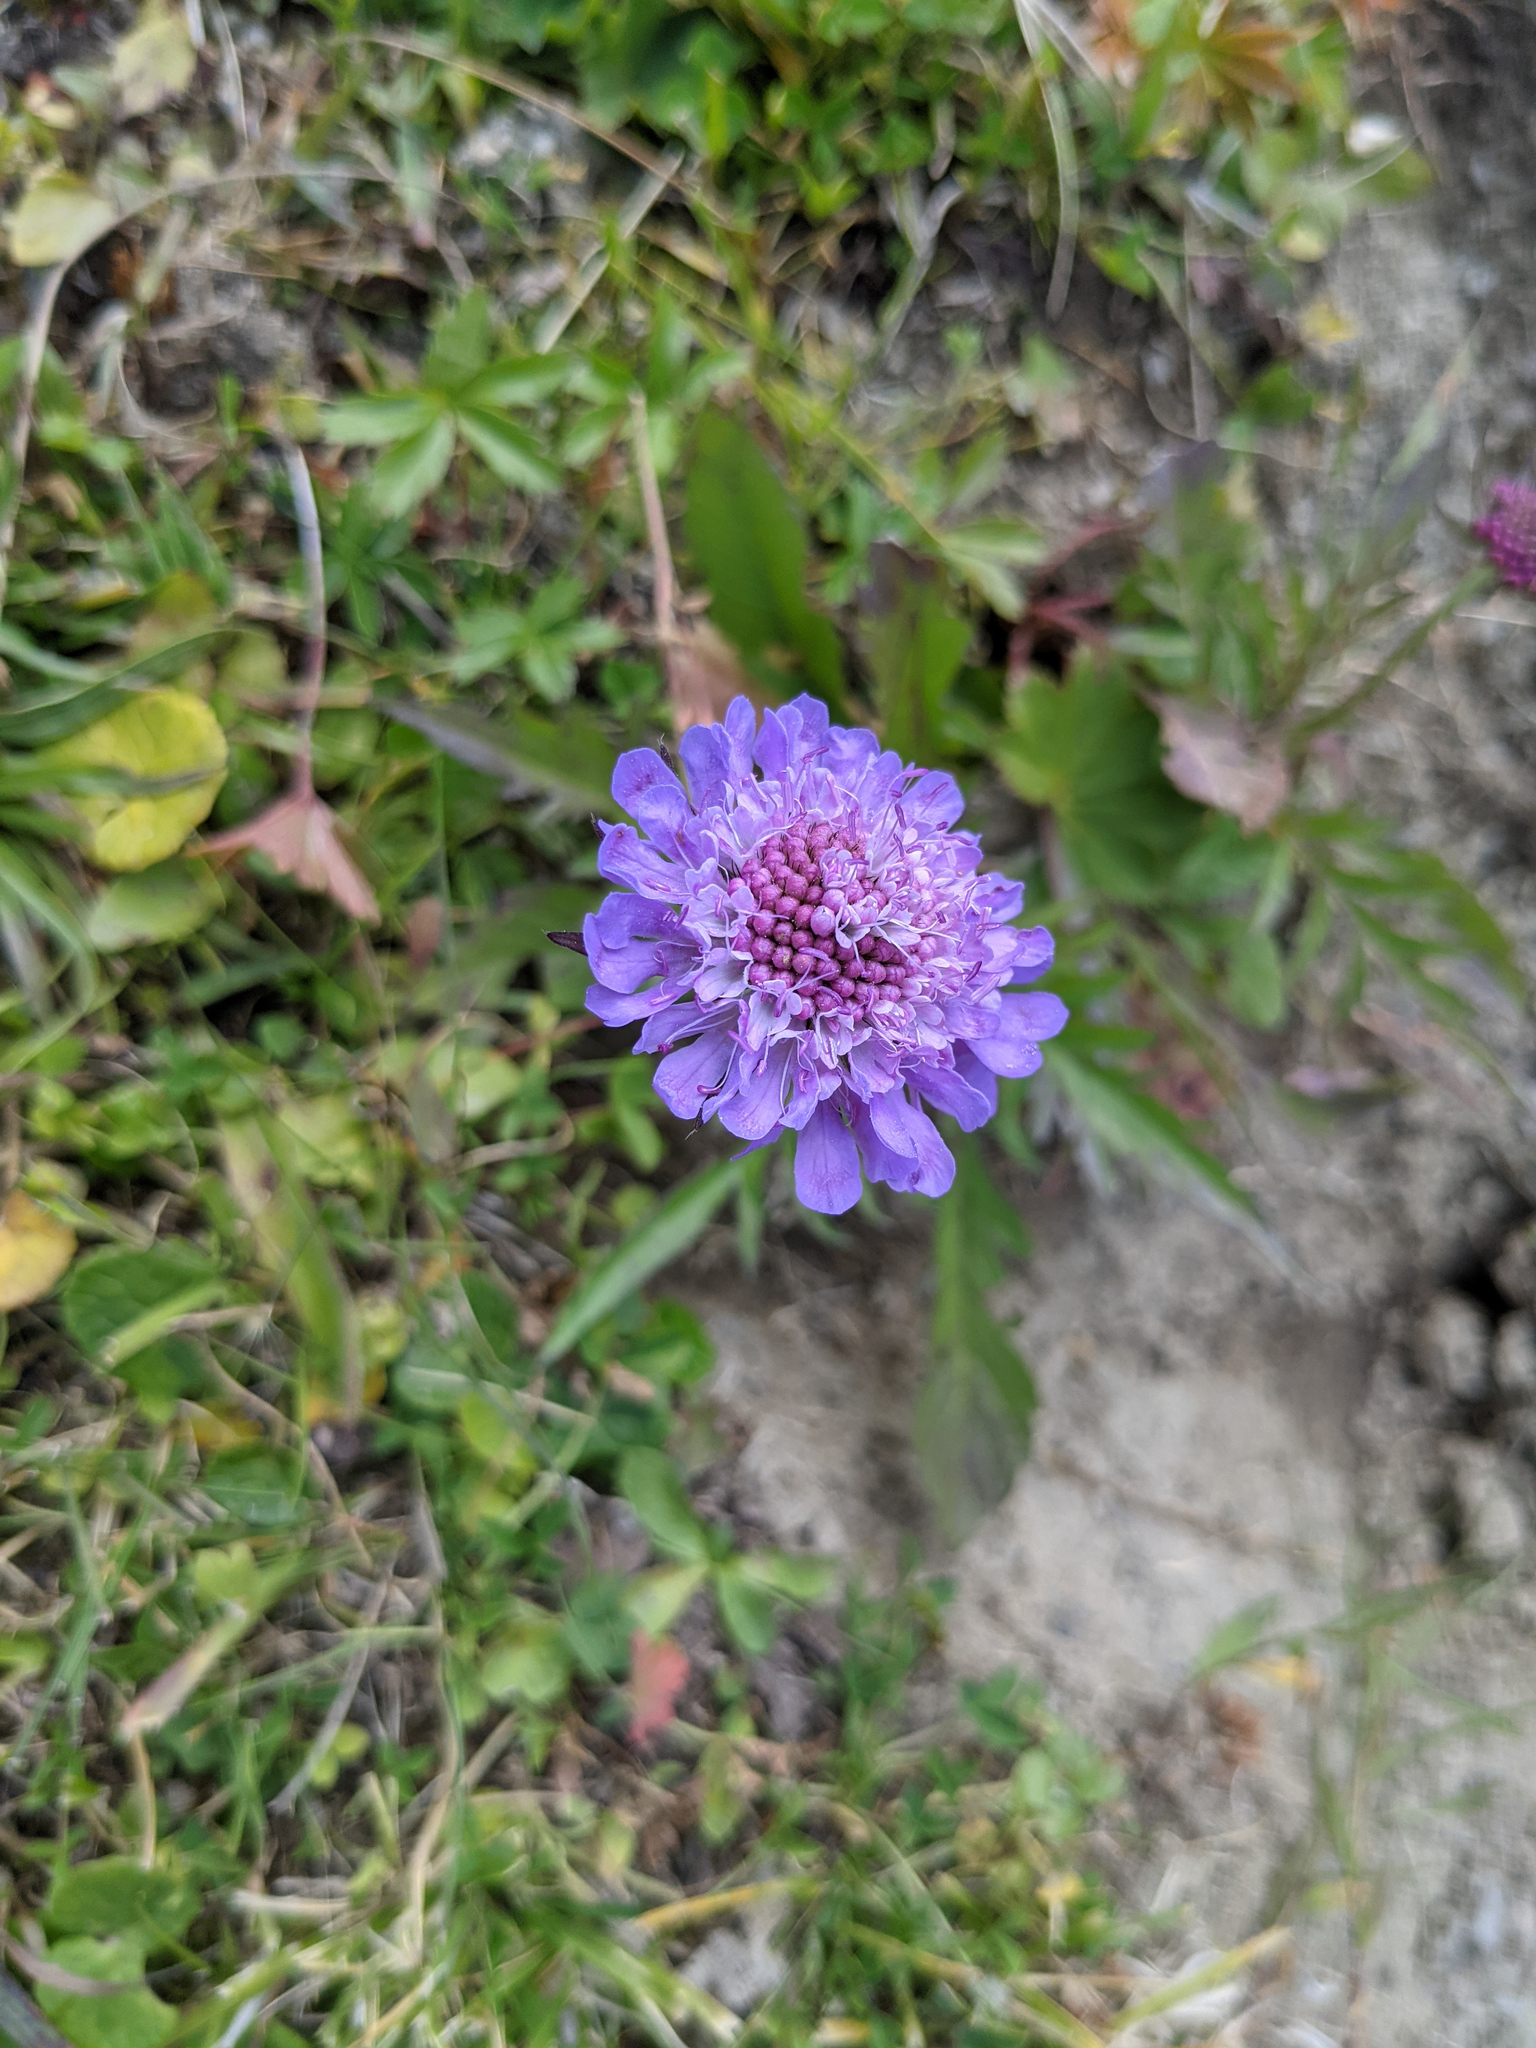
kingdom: Plantae
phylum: Tracheophyta
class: Magnoliopsida
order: Dipsacales
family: Caprifoliaceae
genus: Scabiosa
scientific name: Scabiosa lucida
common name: Shining scabious
